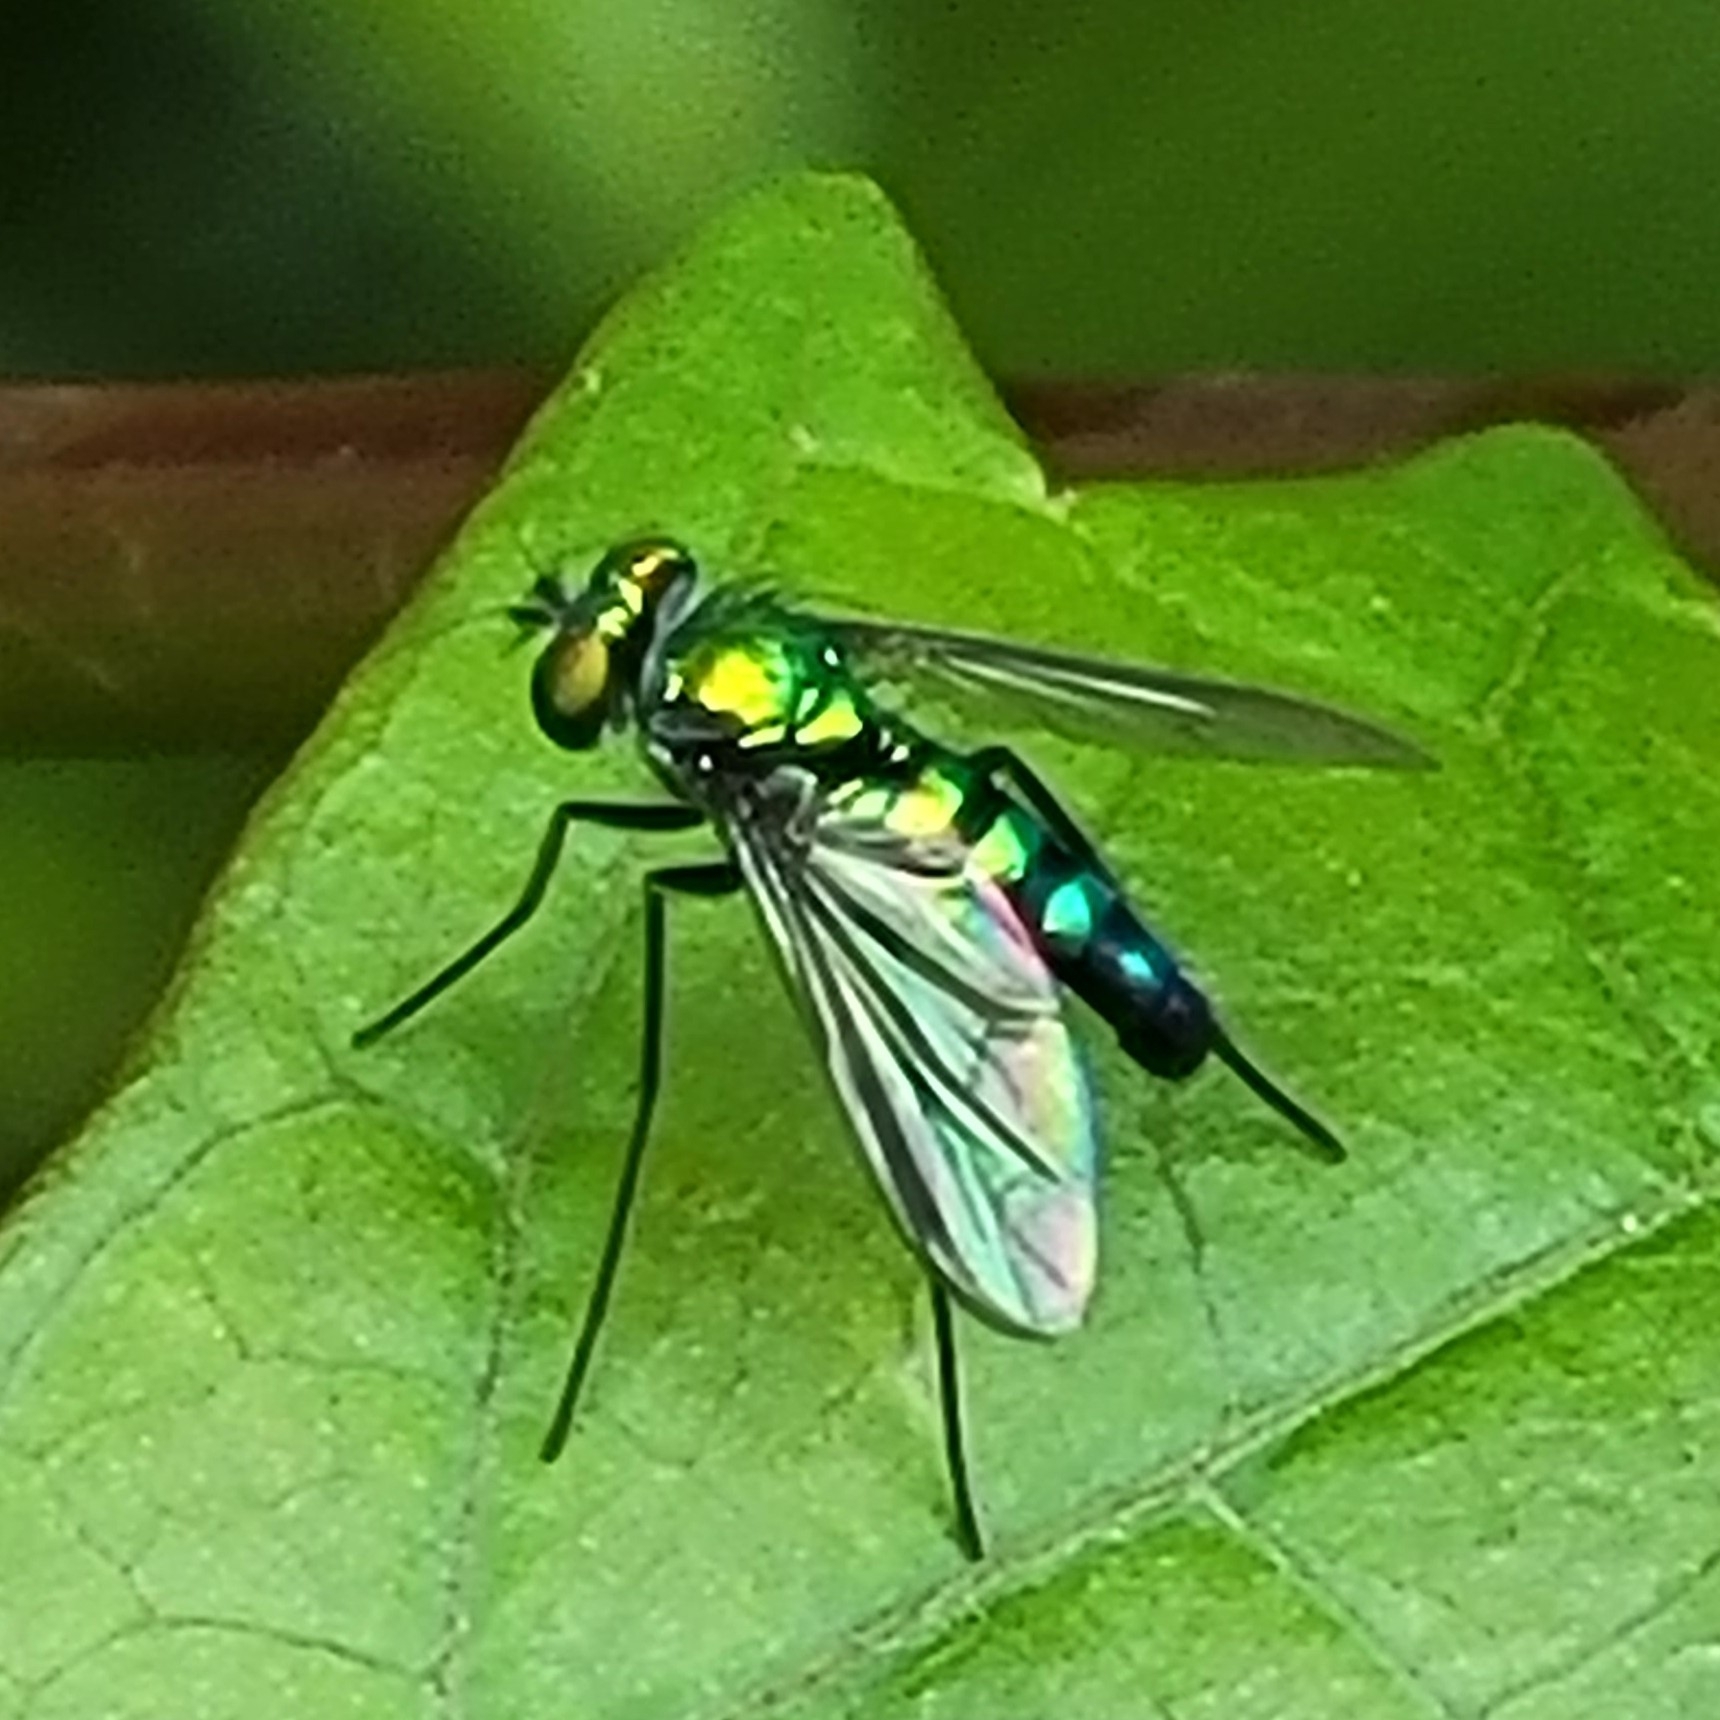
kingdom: Animalia
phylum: Arthropoda
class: Insecta
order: Diptera
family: Dolichopodidae
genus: Condylostylus
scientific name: Condylostylus longicornis
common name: Long-legged fly
